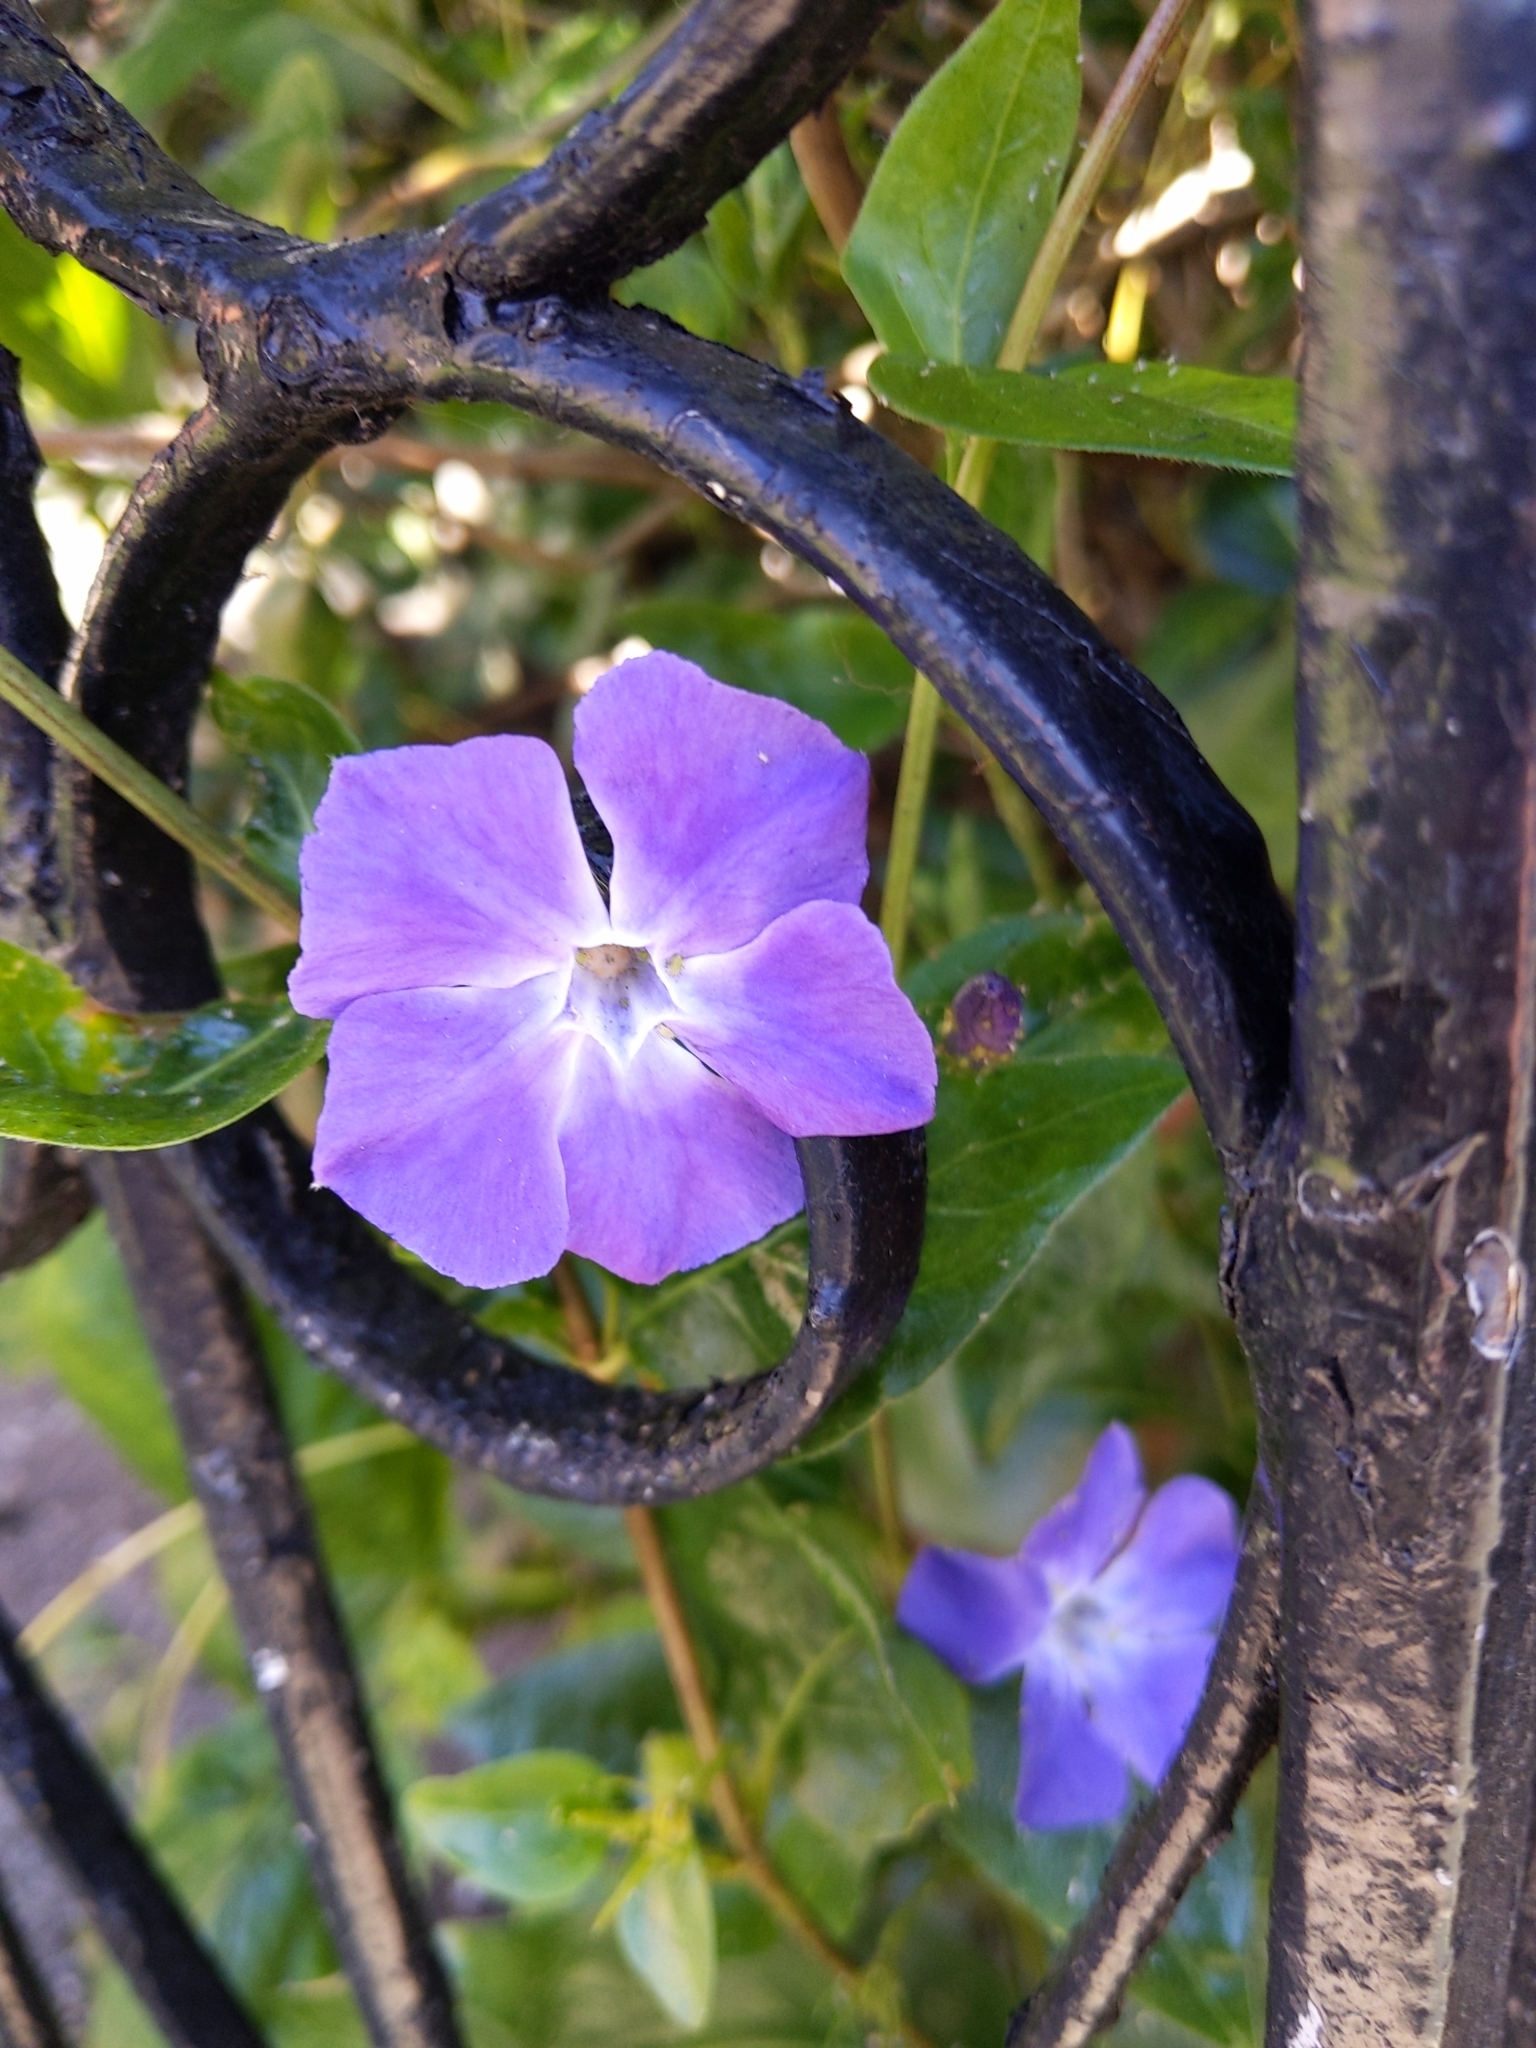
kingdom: Plantae
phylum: Tracheophyta
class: Magnoliopsida
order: Gentianales
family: Apocynaceae
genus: Vinca
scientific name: Vinca major
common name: Greater periwinkle
